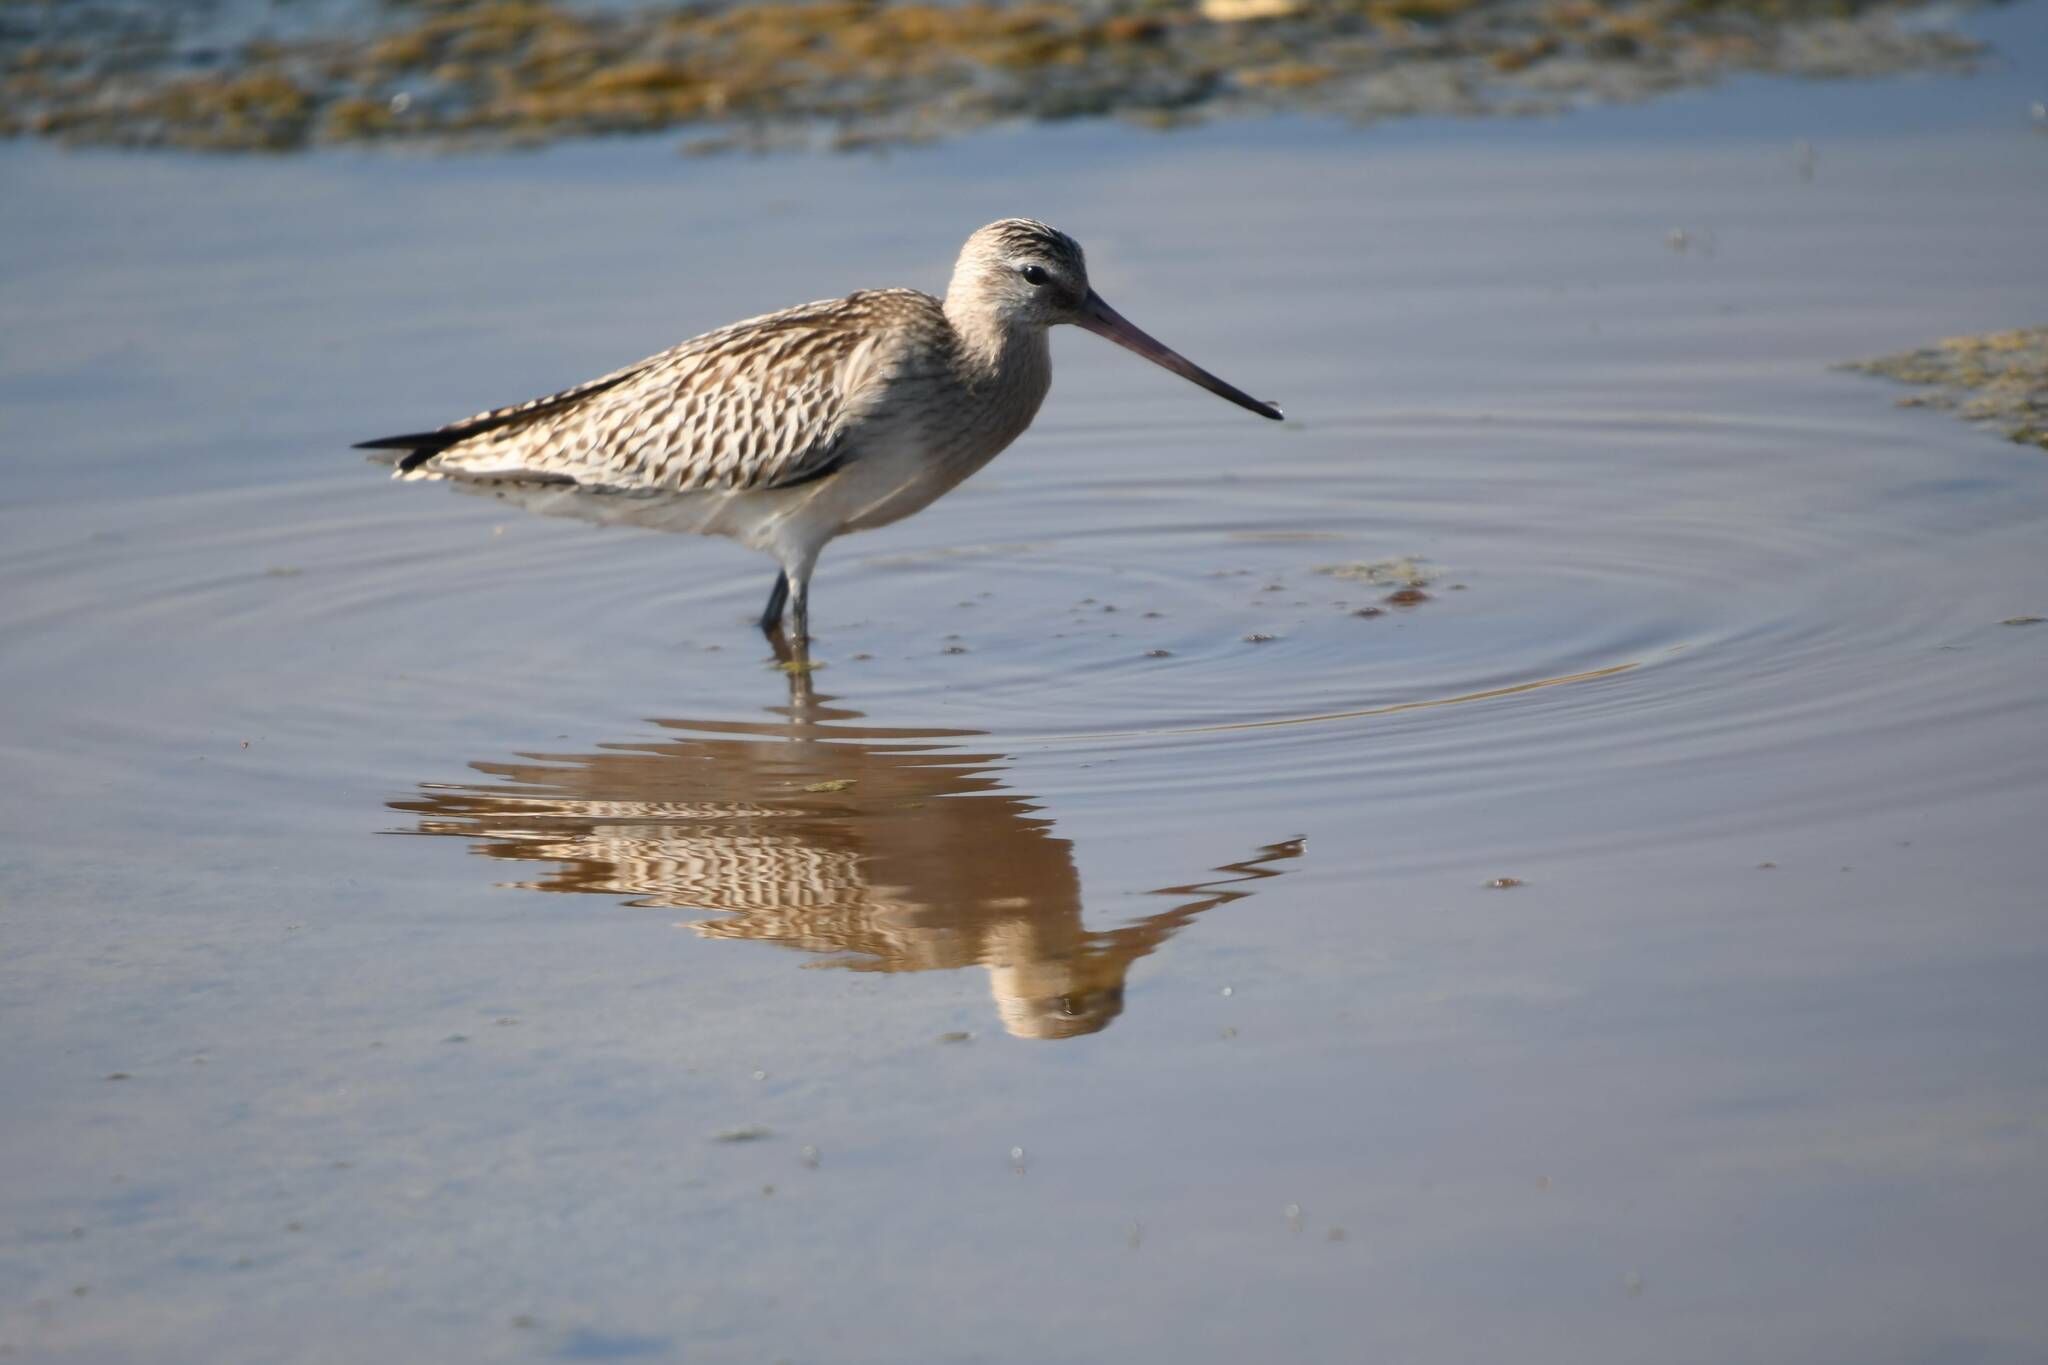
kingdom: Animalia
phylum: Chordata
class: Aves
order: Charadriiformes
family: Scolopacidae
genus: Limosa
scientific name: Limosa lapponica
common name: Bar-tailed godwit
